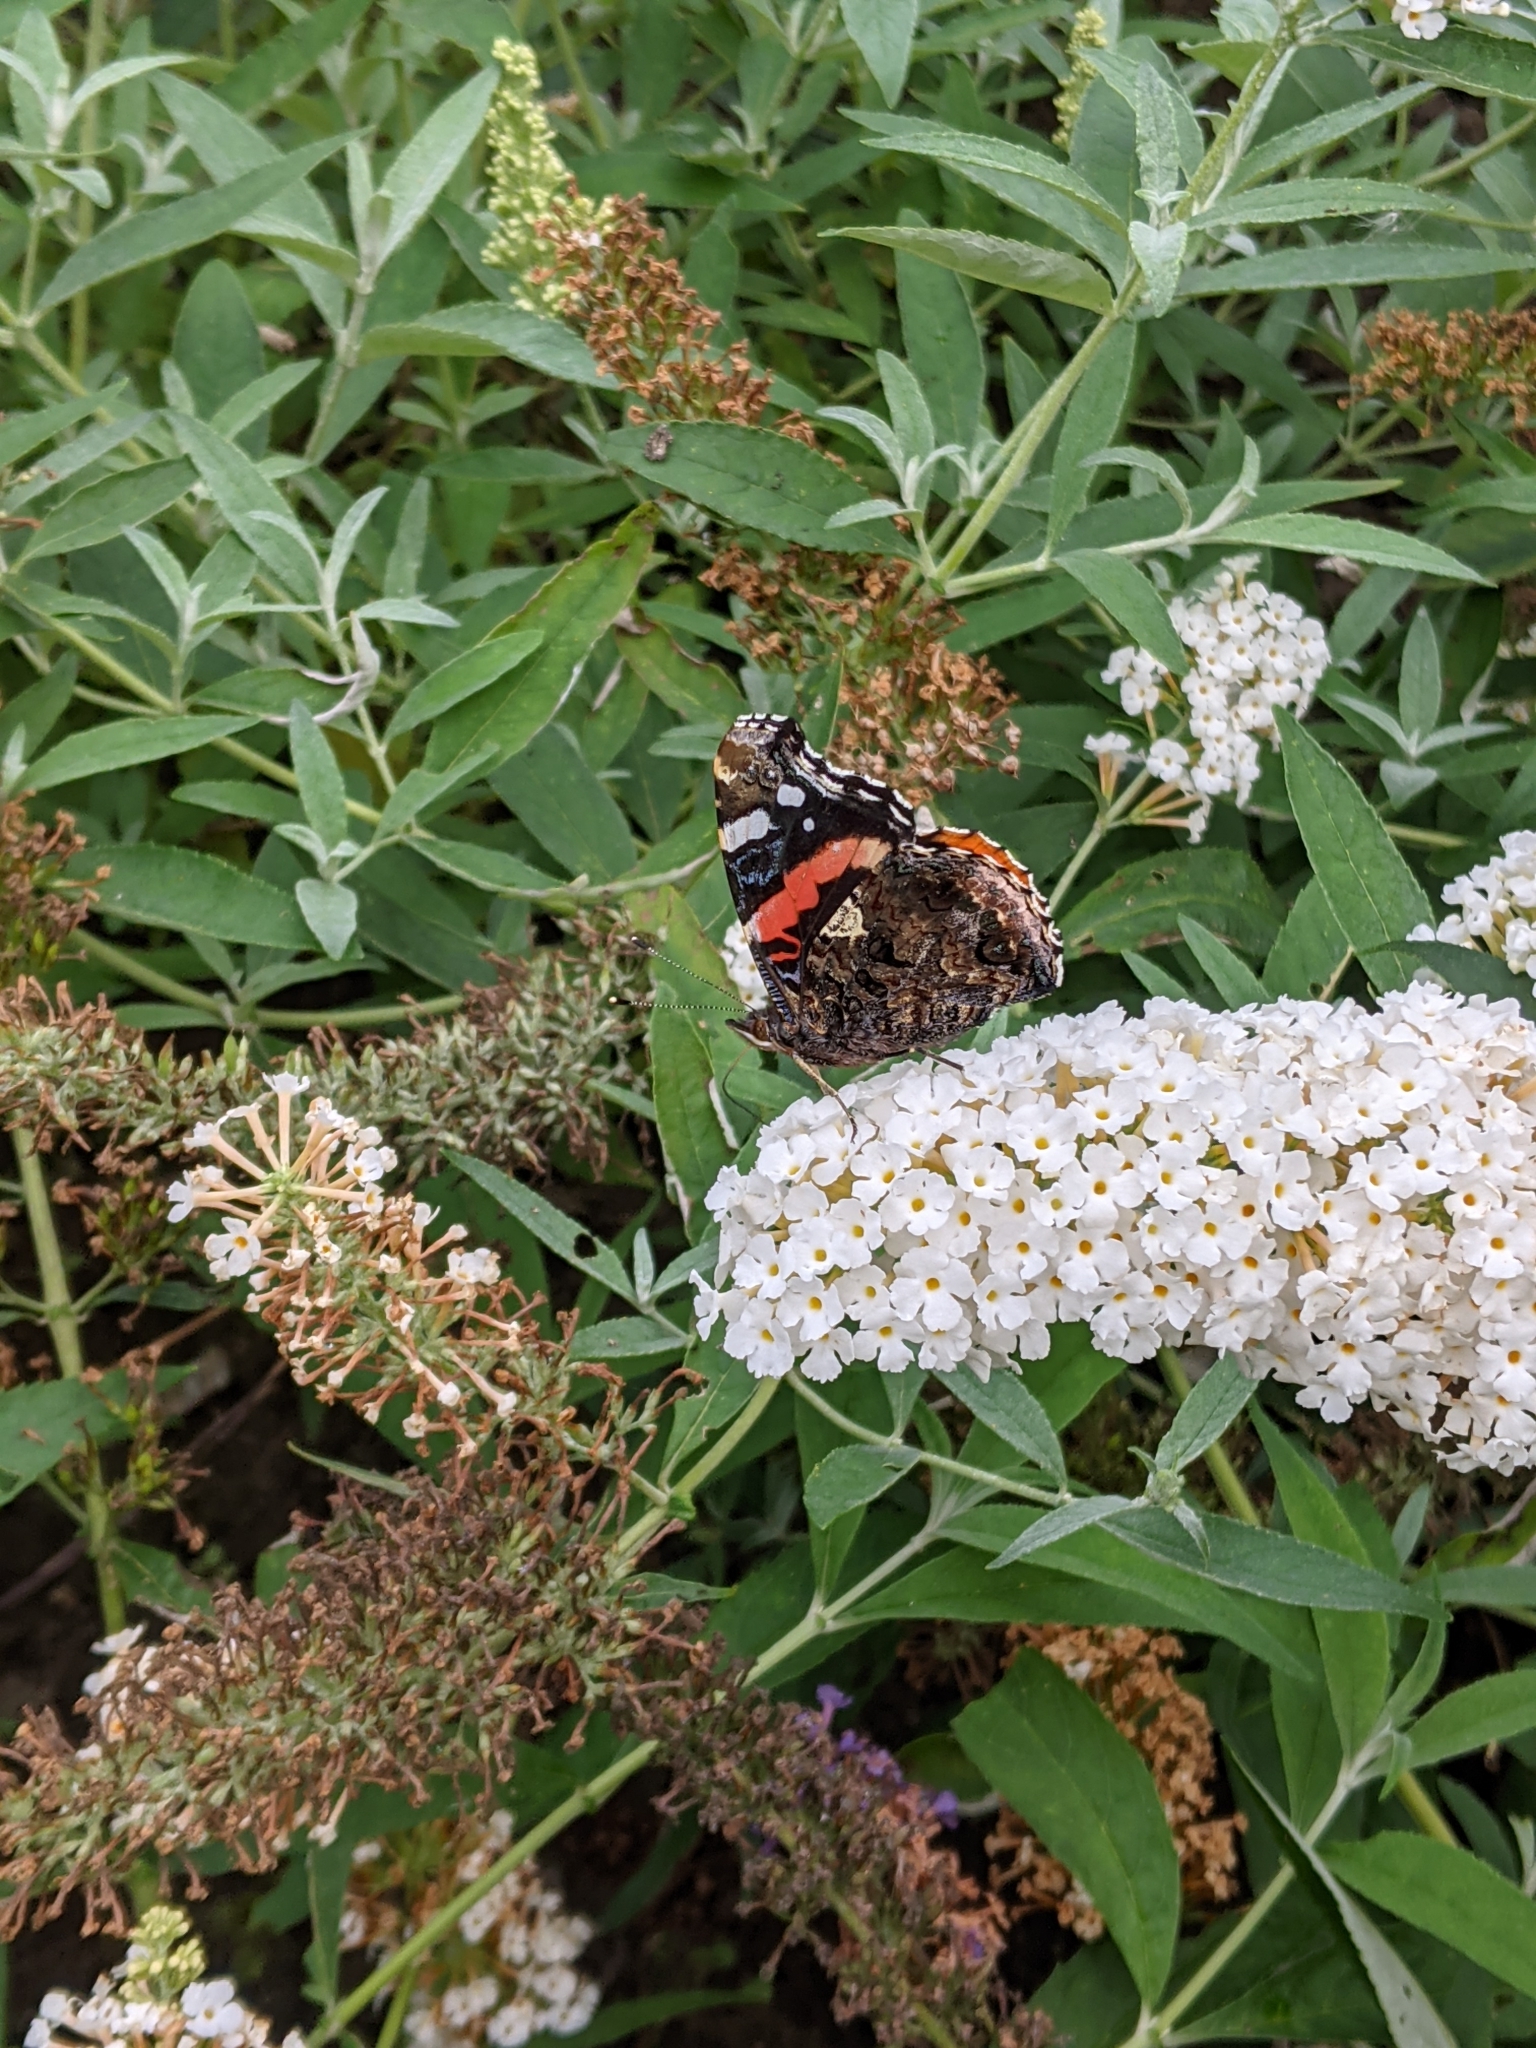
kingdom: Animalia
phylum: Arthropoda
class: Insecta
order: Lepidoptera
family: Nymphalidae
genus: Vanessa
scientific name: Vanessa atalanta
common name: Red admiral
